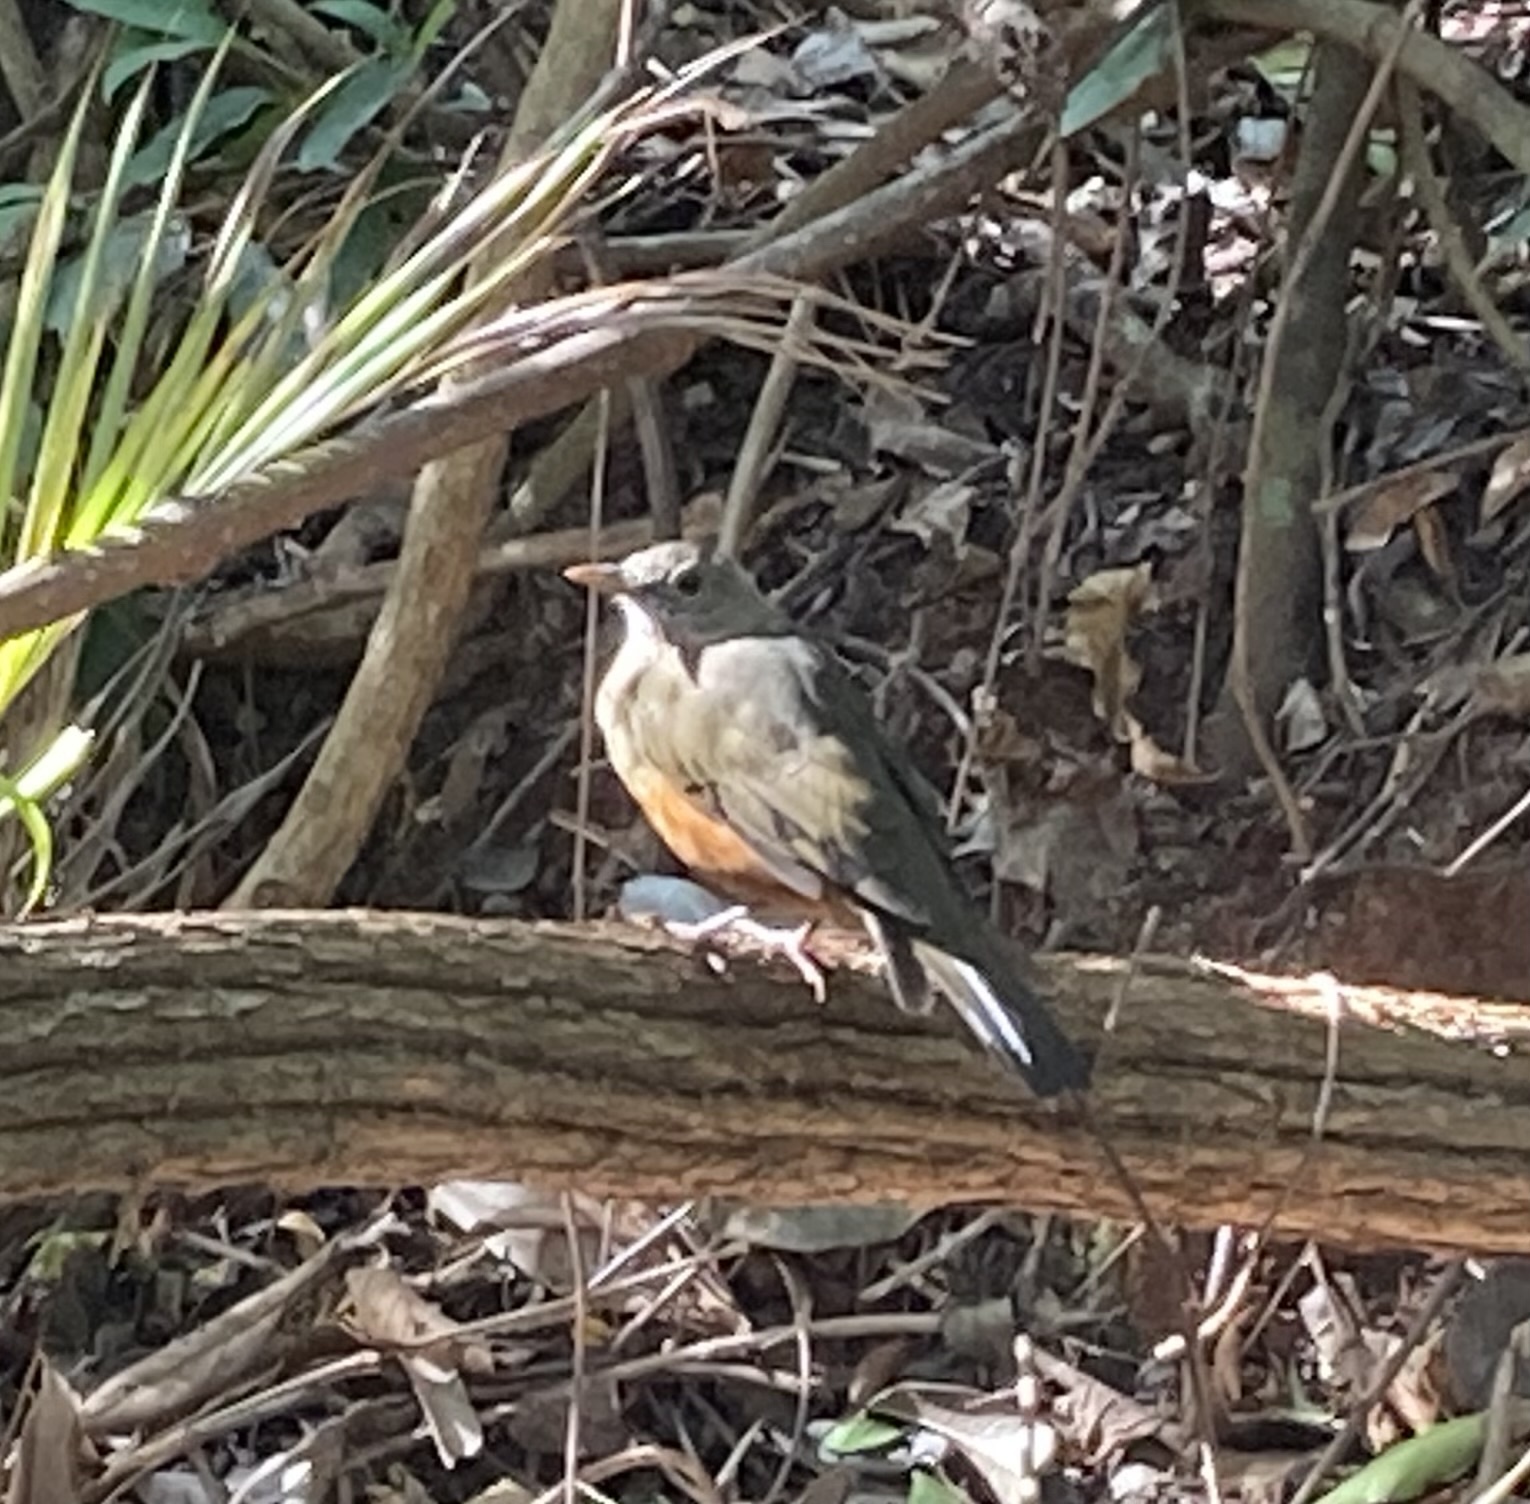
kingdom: Animalia
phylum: Chordata
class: Aves
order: Passeriformes
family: Turdidae
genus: Turdus
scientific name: Turdus rufiventris
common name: Rufous-bellied thrush
